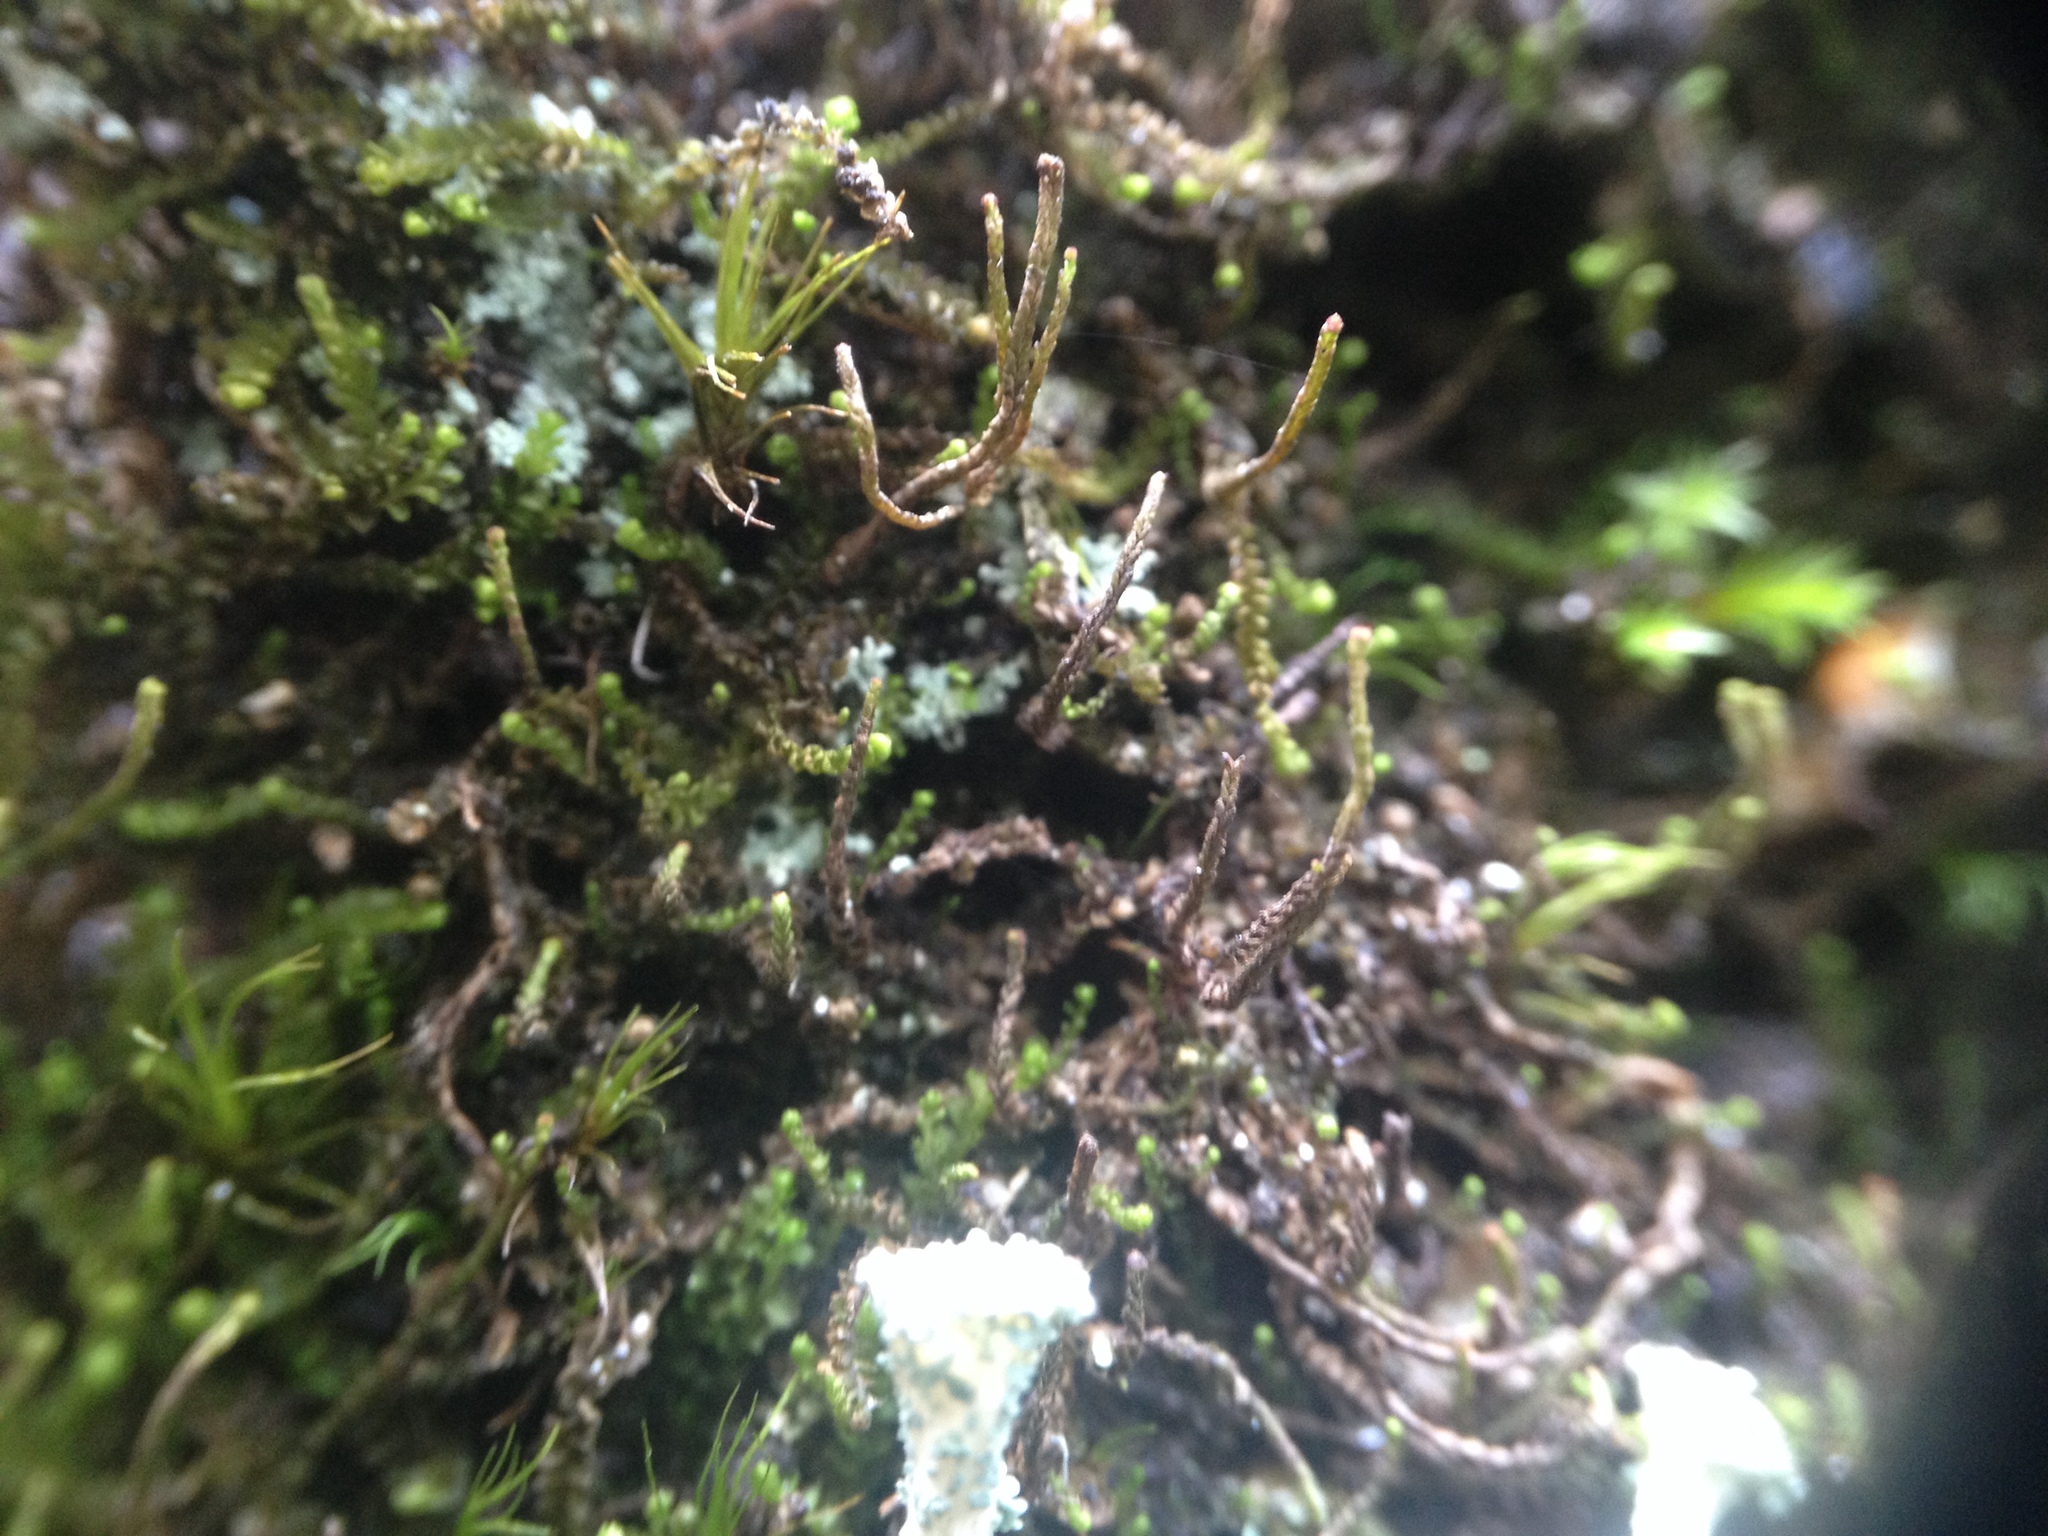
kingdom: Plantae
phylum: Marchantiophyta
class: Jungermanniopsida
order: Jungermanniales
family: Anastrophyllaceae
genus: Neoorthocaulis
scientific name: Neoorthocaulis attenuatus
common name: Trunk pawwort
